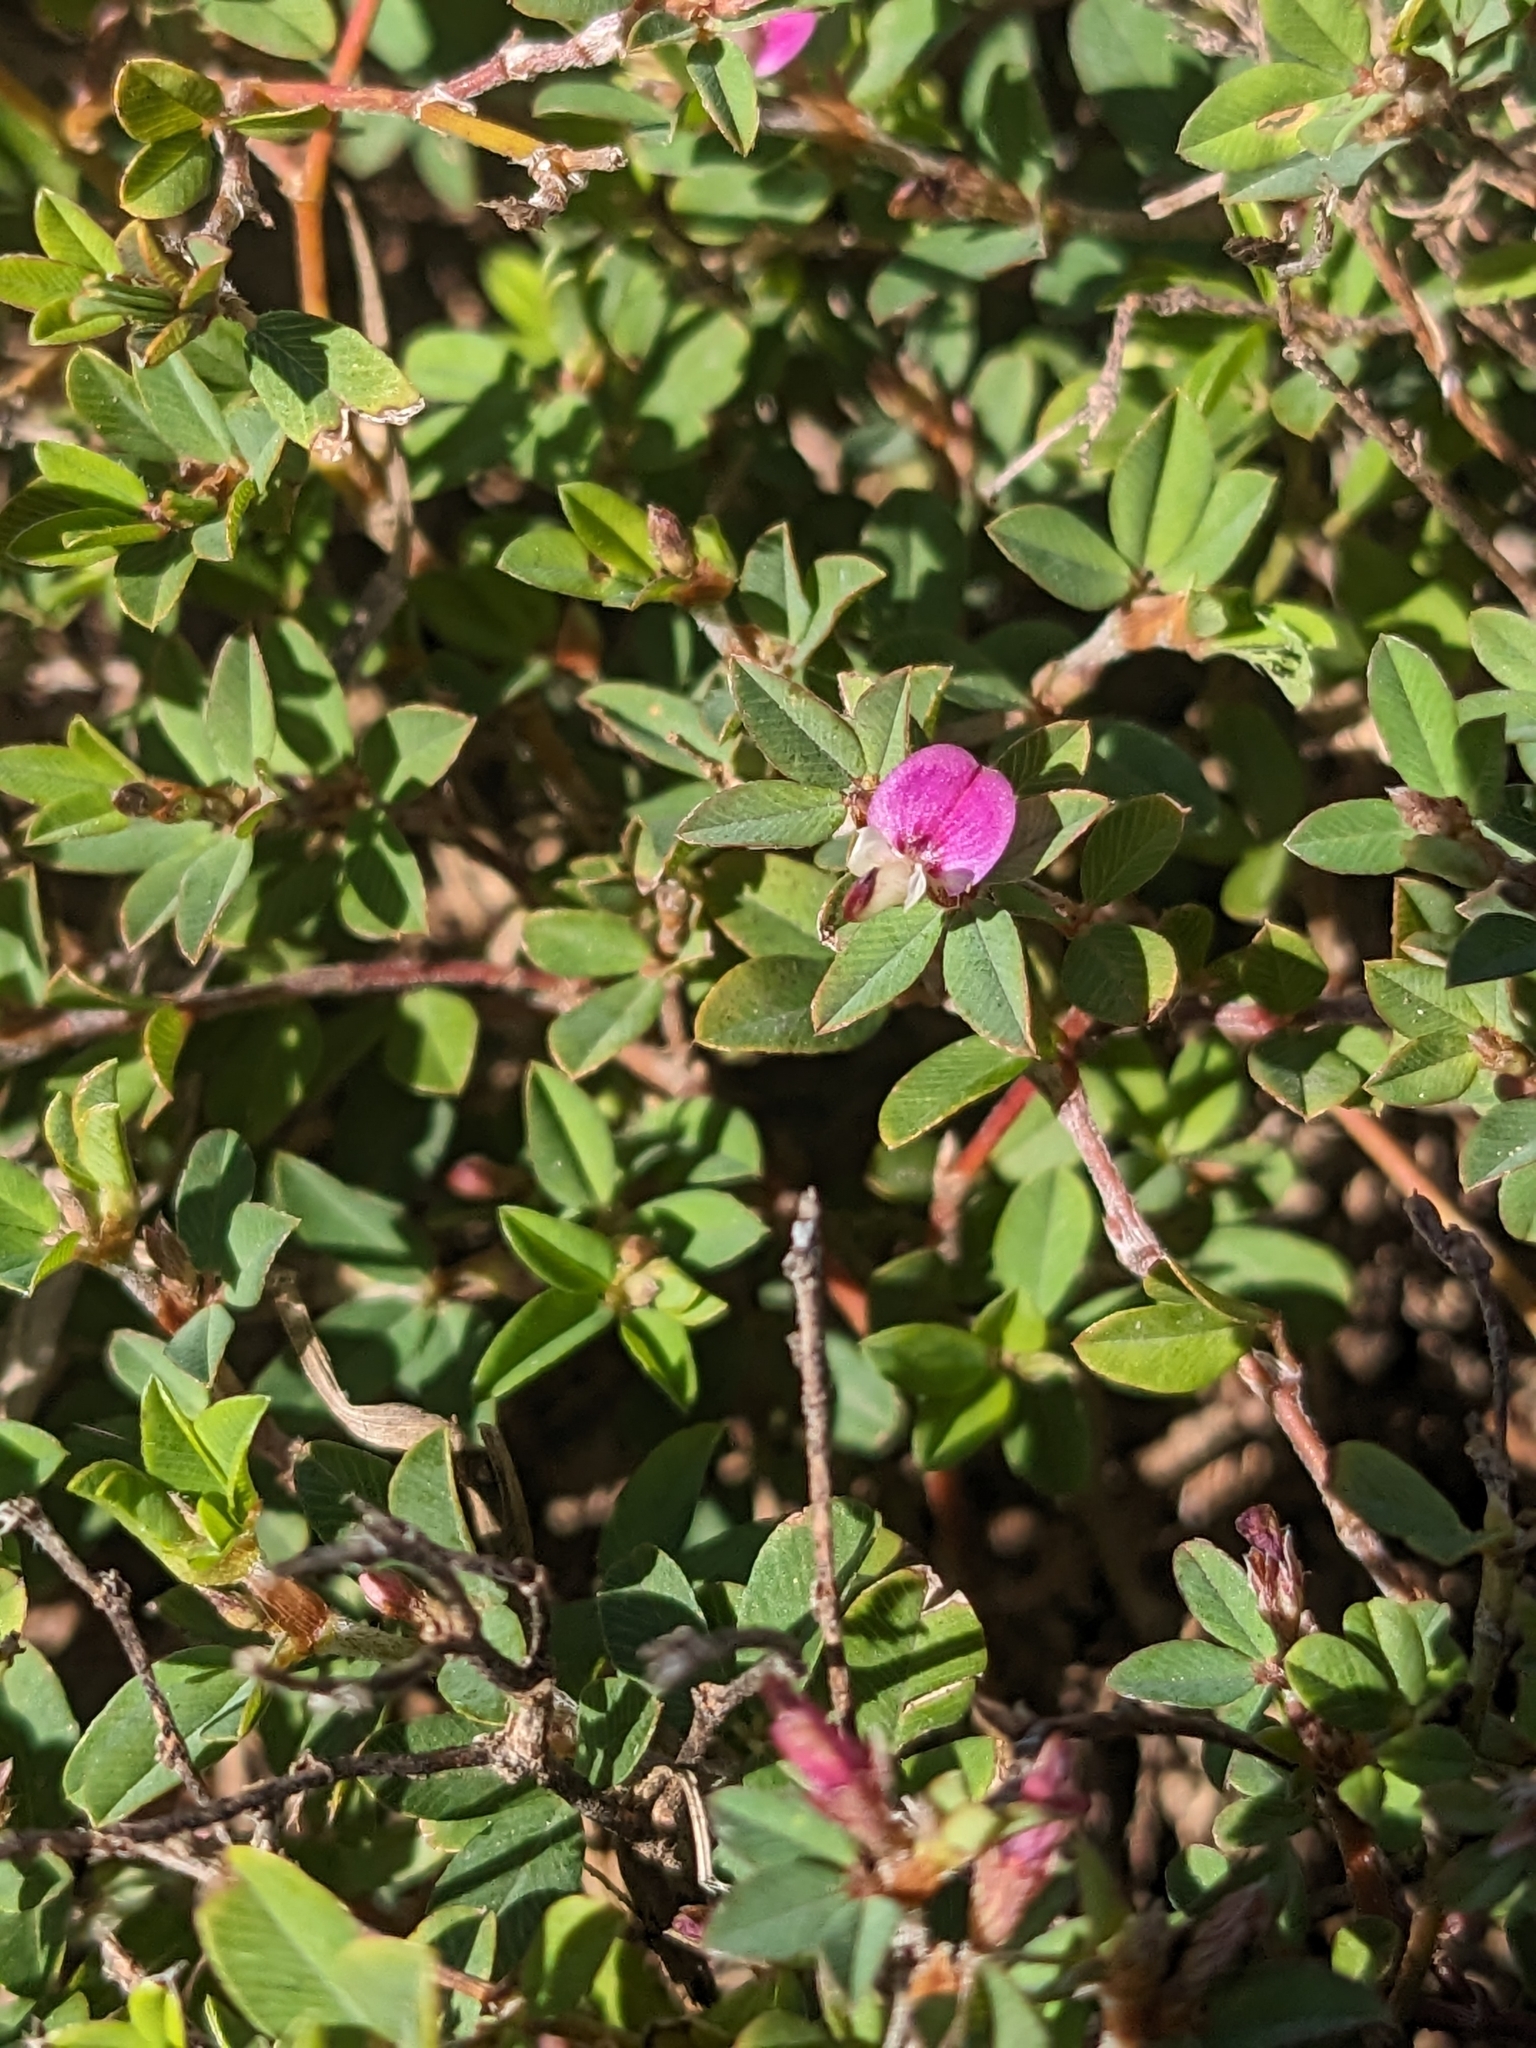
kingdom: Plantae
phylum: Tracheophyta
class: Magnoliopsida
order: Fabales
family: Fabaceae
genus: Kummerowia
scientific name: Kummerowia striata
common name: Japanese clover
